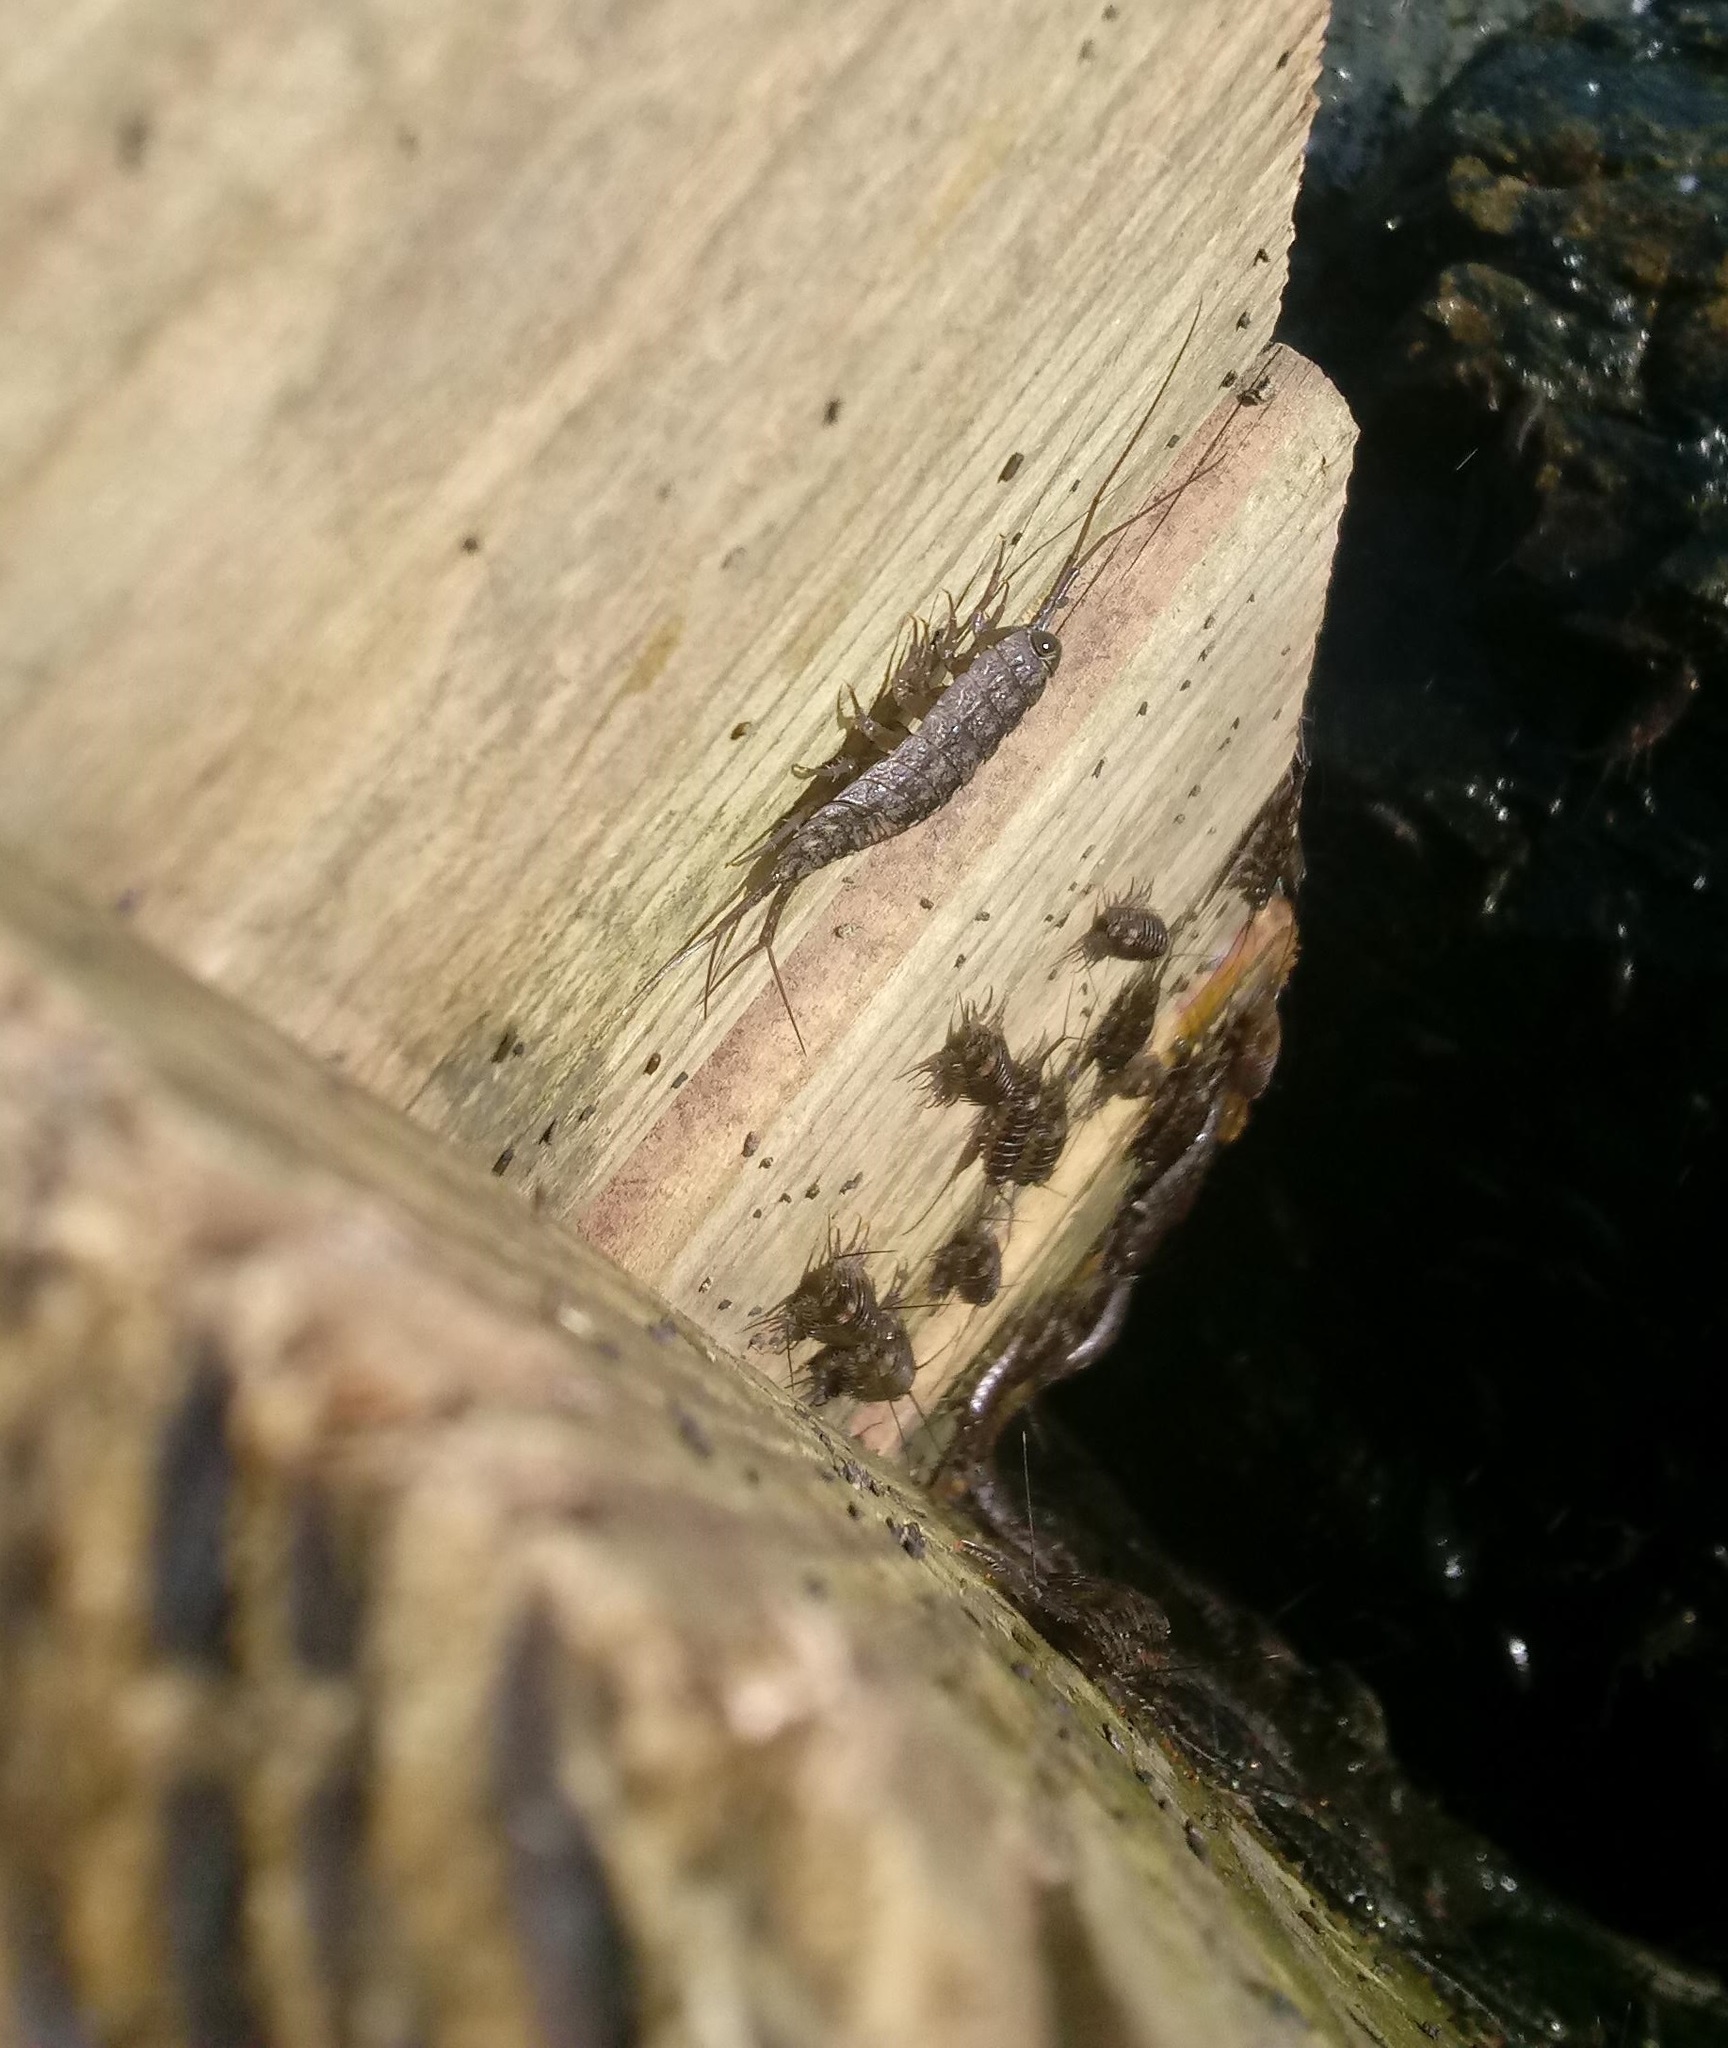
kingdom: Animalia
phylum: Arthropoda
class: Malacostraca
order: Isopoda
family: Ligiidae
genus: Ligia
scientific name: Ligia exotica
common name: Wharf roach
